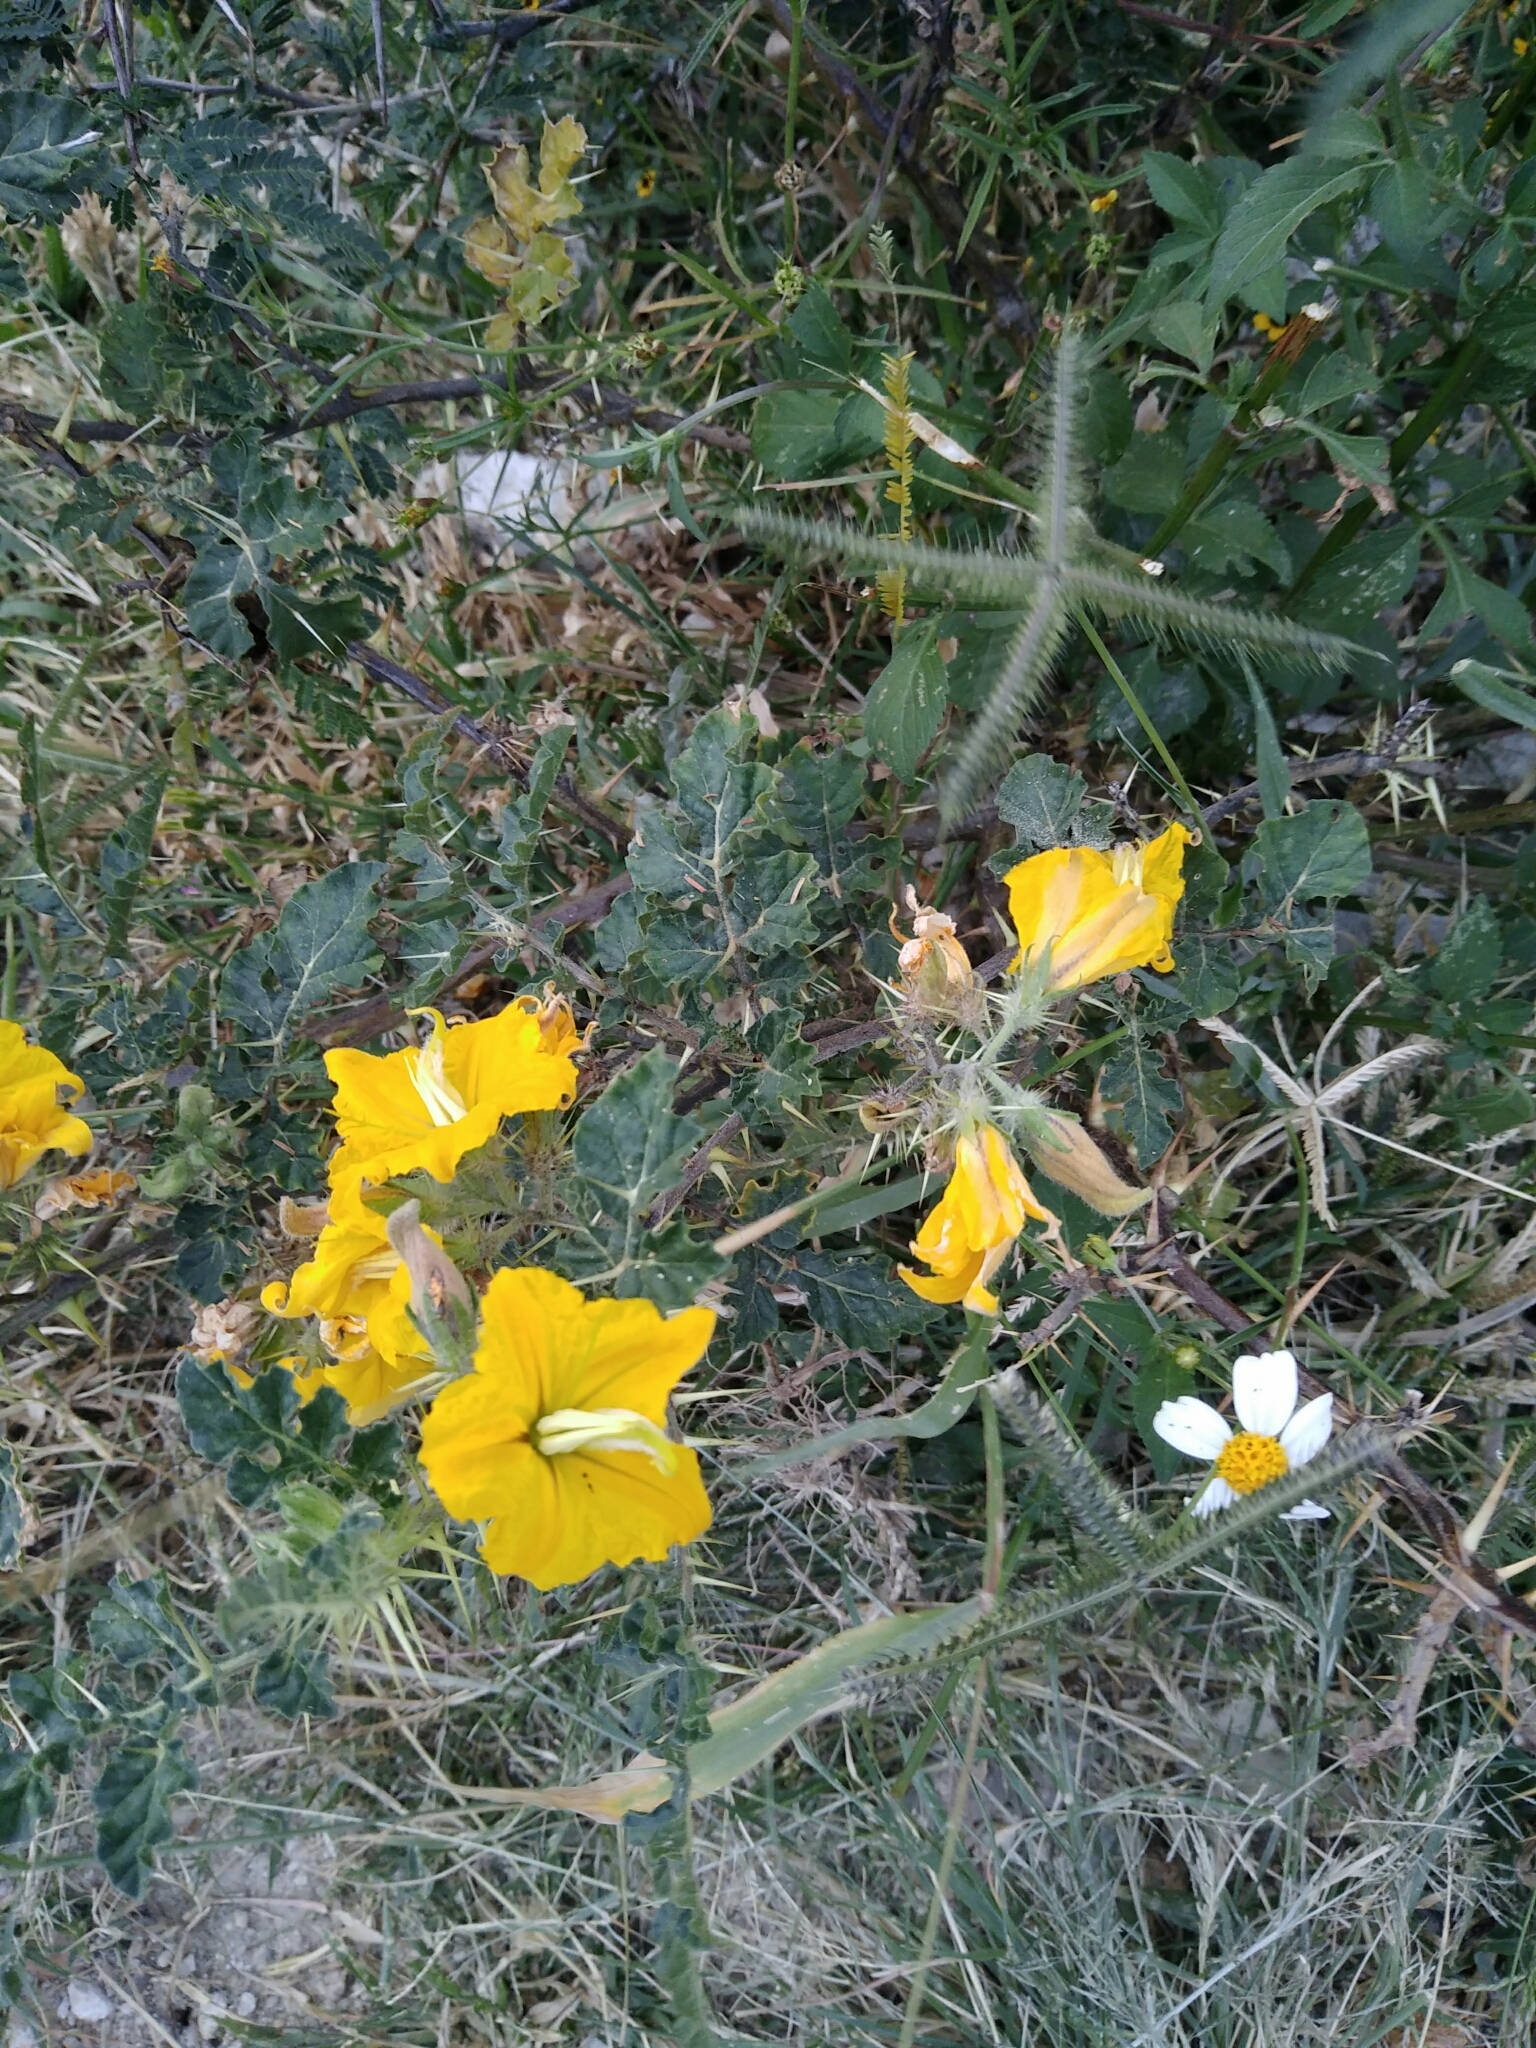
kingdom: Plantae
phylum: Tracheophyta
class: Magnoliopsida
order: Solanales
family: Solanaceae
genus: Solanum
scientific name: Solanum angustifolium
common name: Buffalobur nightshade
